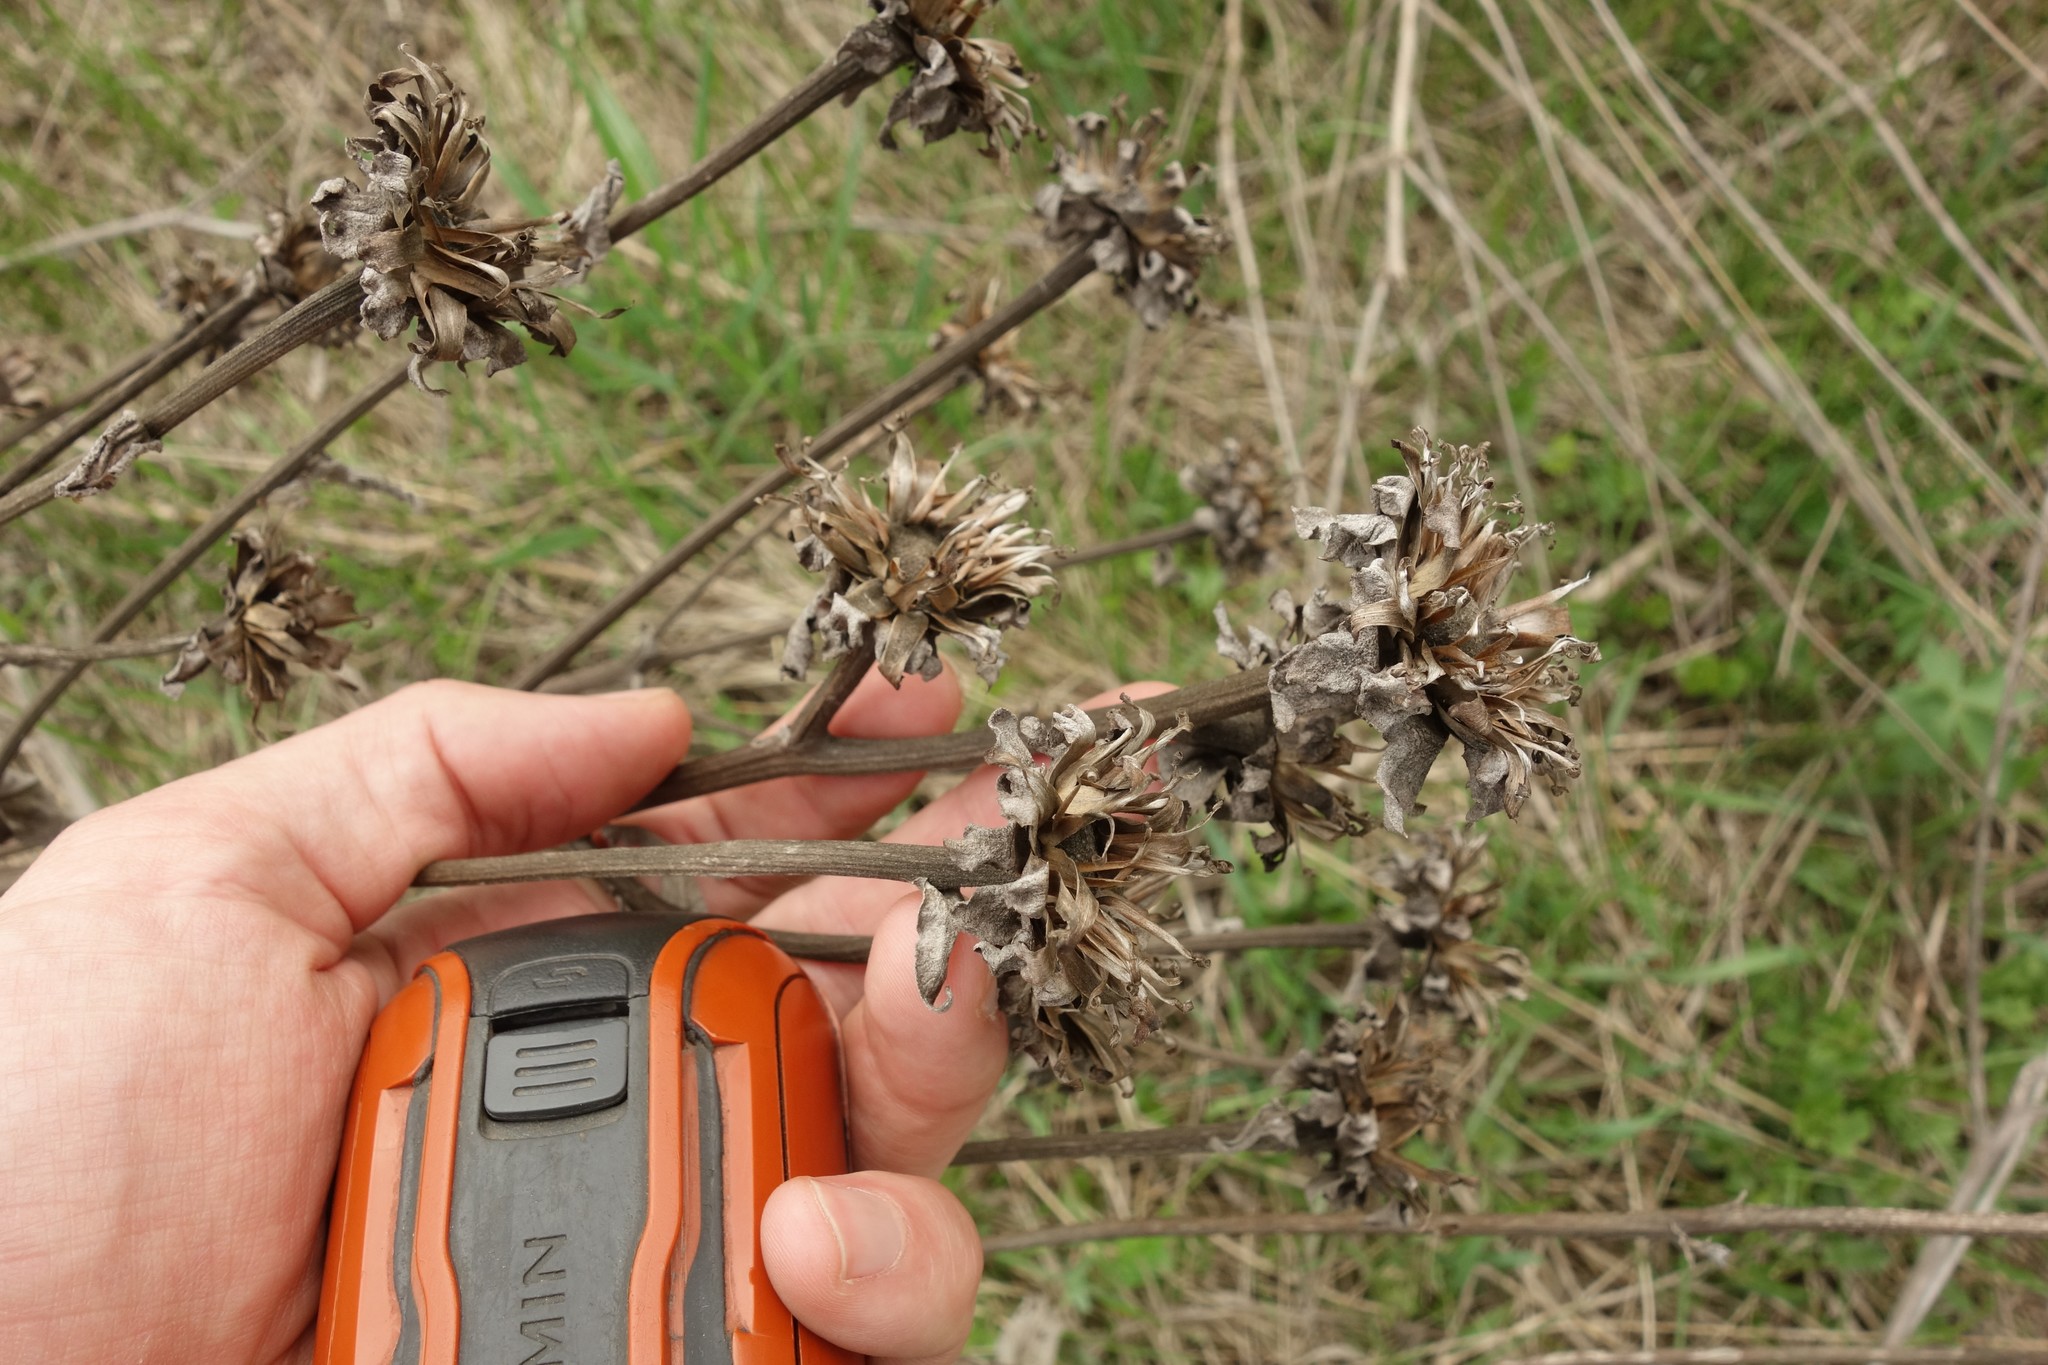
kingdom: Plantae
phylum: Tracheophyta
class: Magnoliopsida
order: Asterales
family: Asteraceae
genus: Inula
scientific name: Inula helenium
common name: Elecampane
